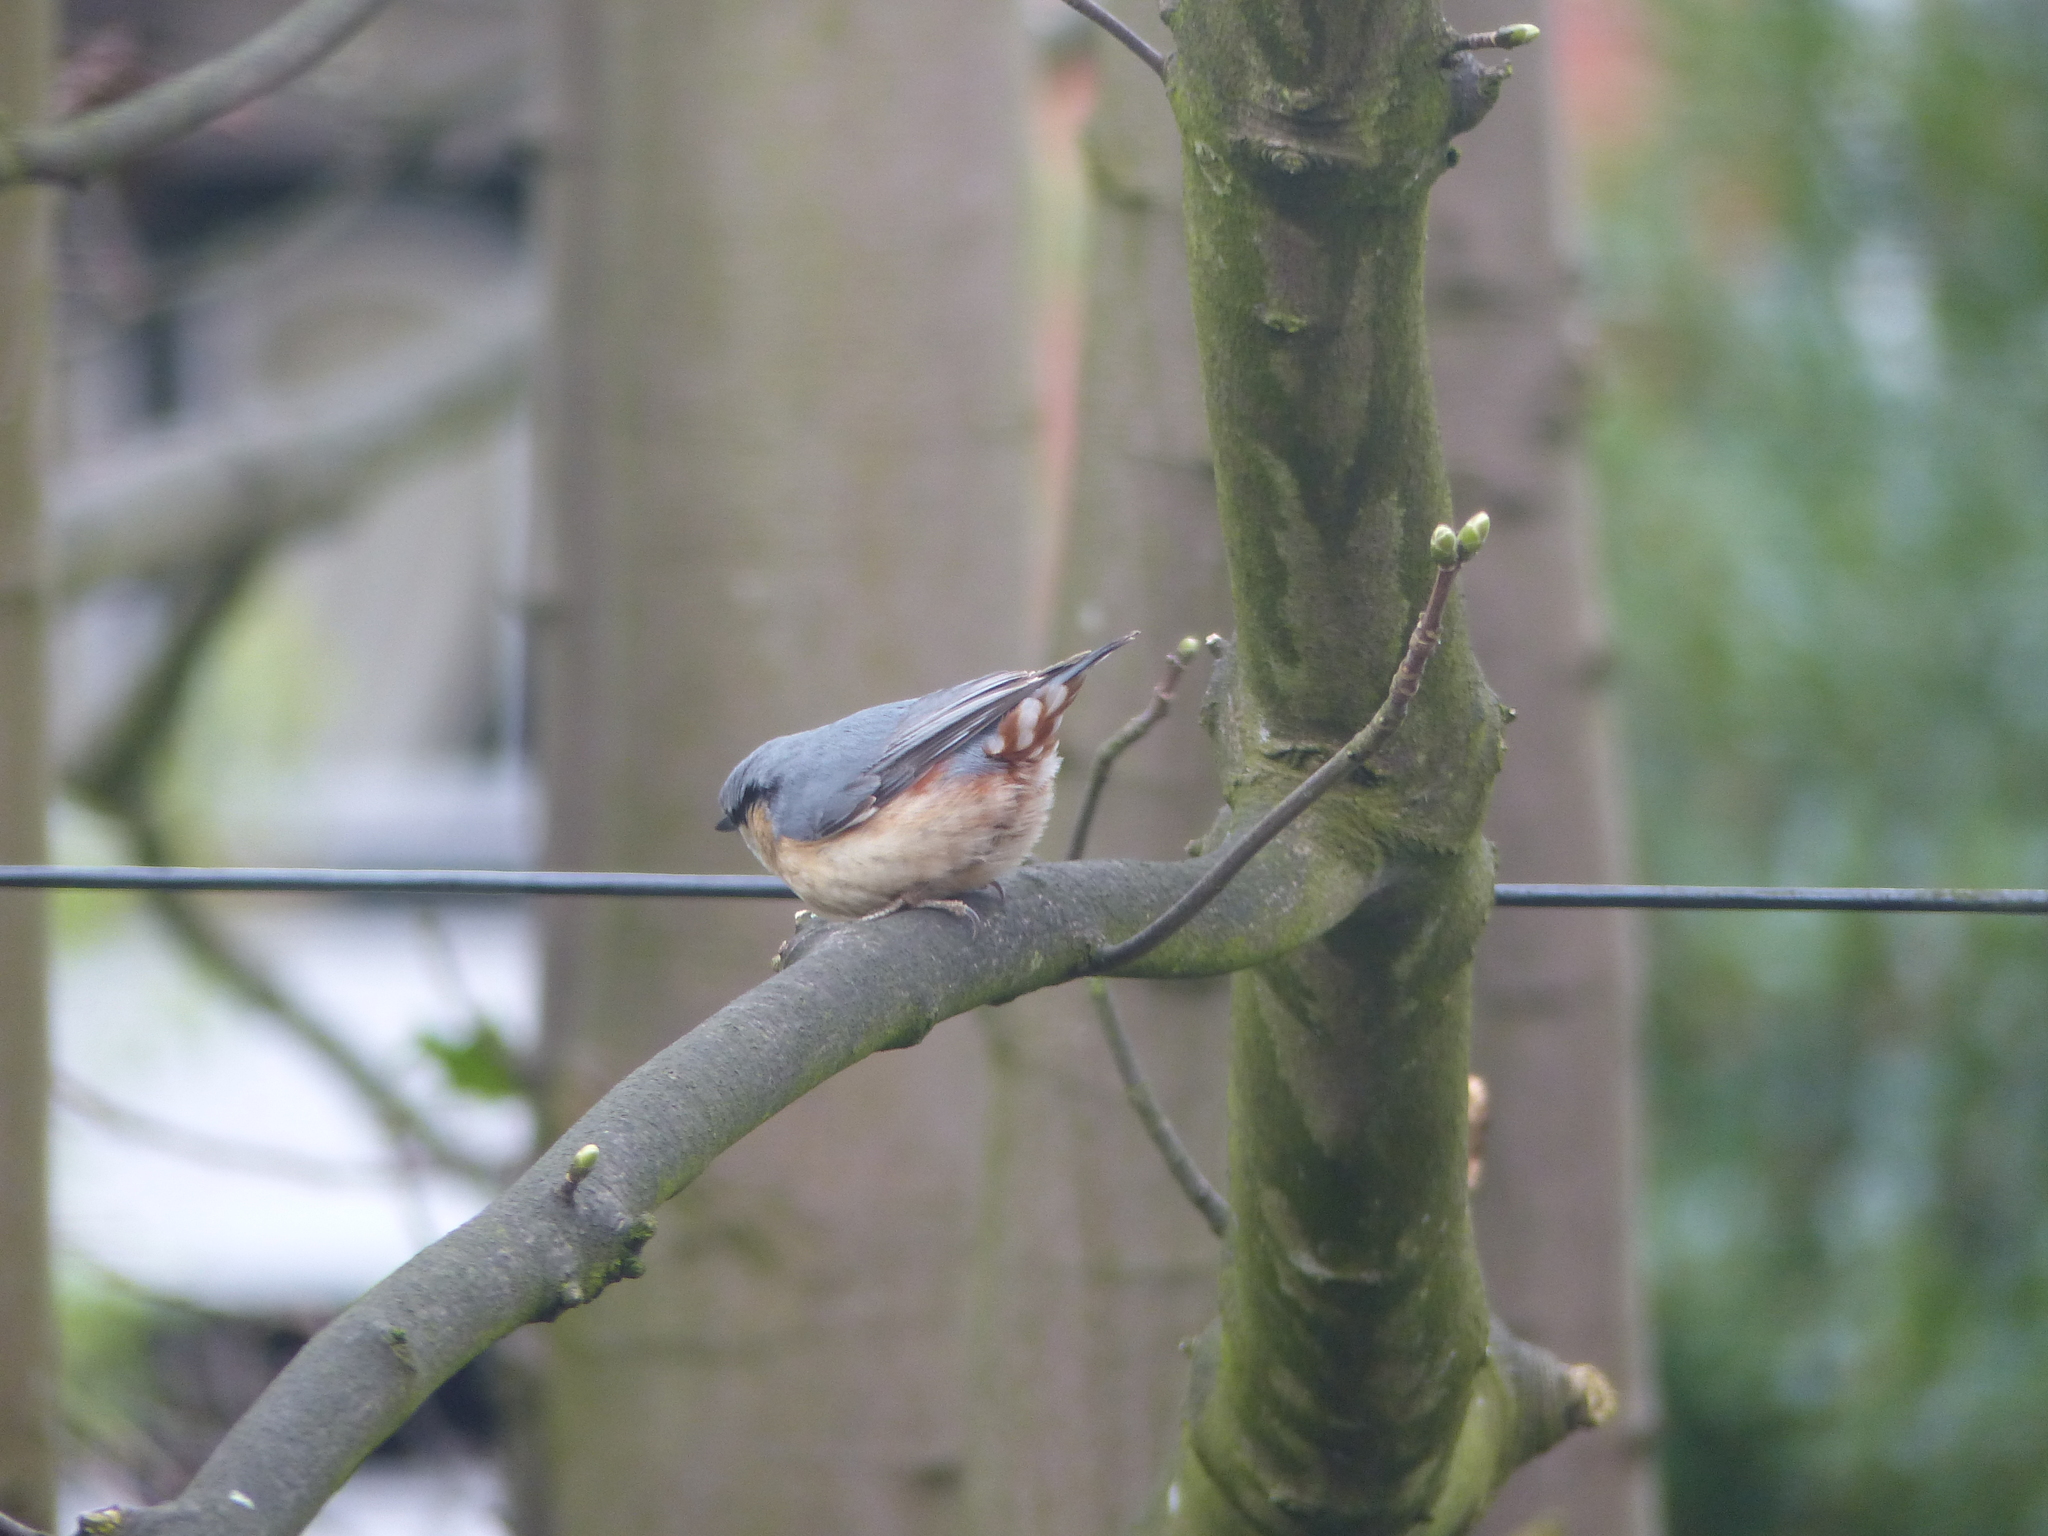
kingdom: Animalia
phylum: Chordata
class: Aves
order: Passeriformes
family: Sittidae
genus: Sitta
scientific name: Sitta europaea
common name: Eurasian nuthatch
